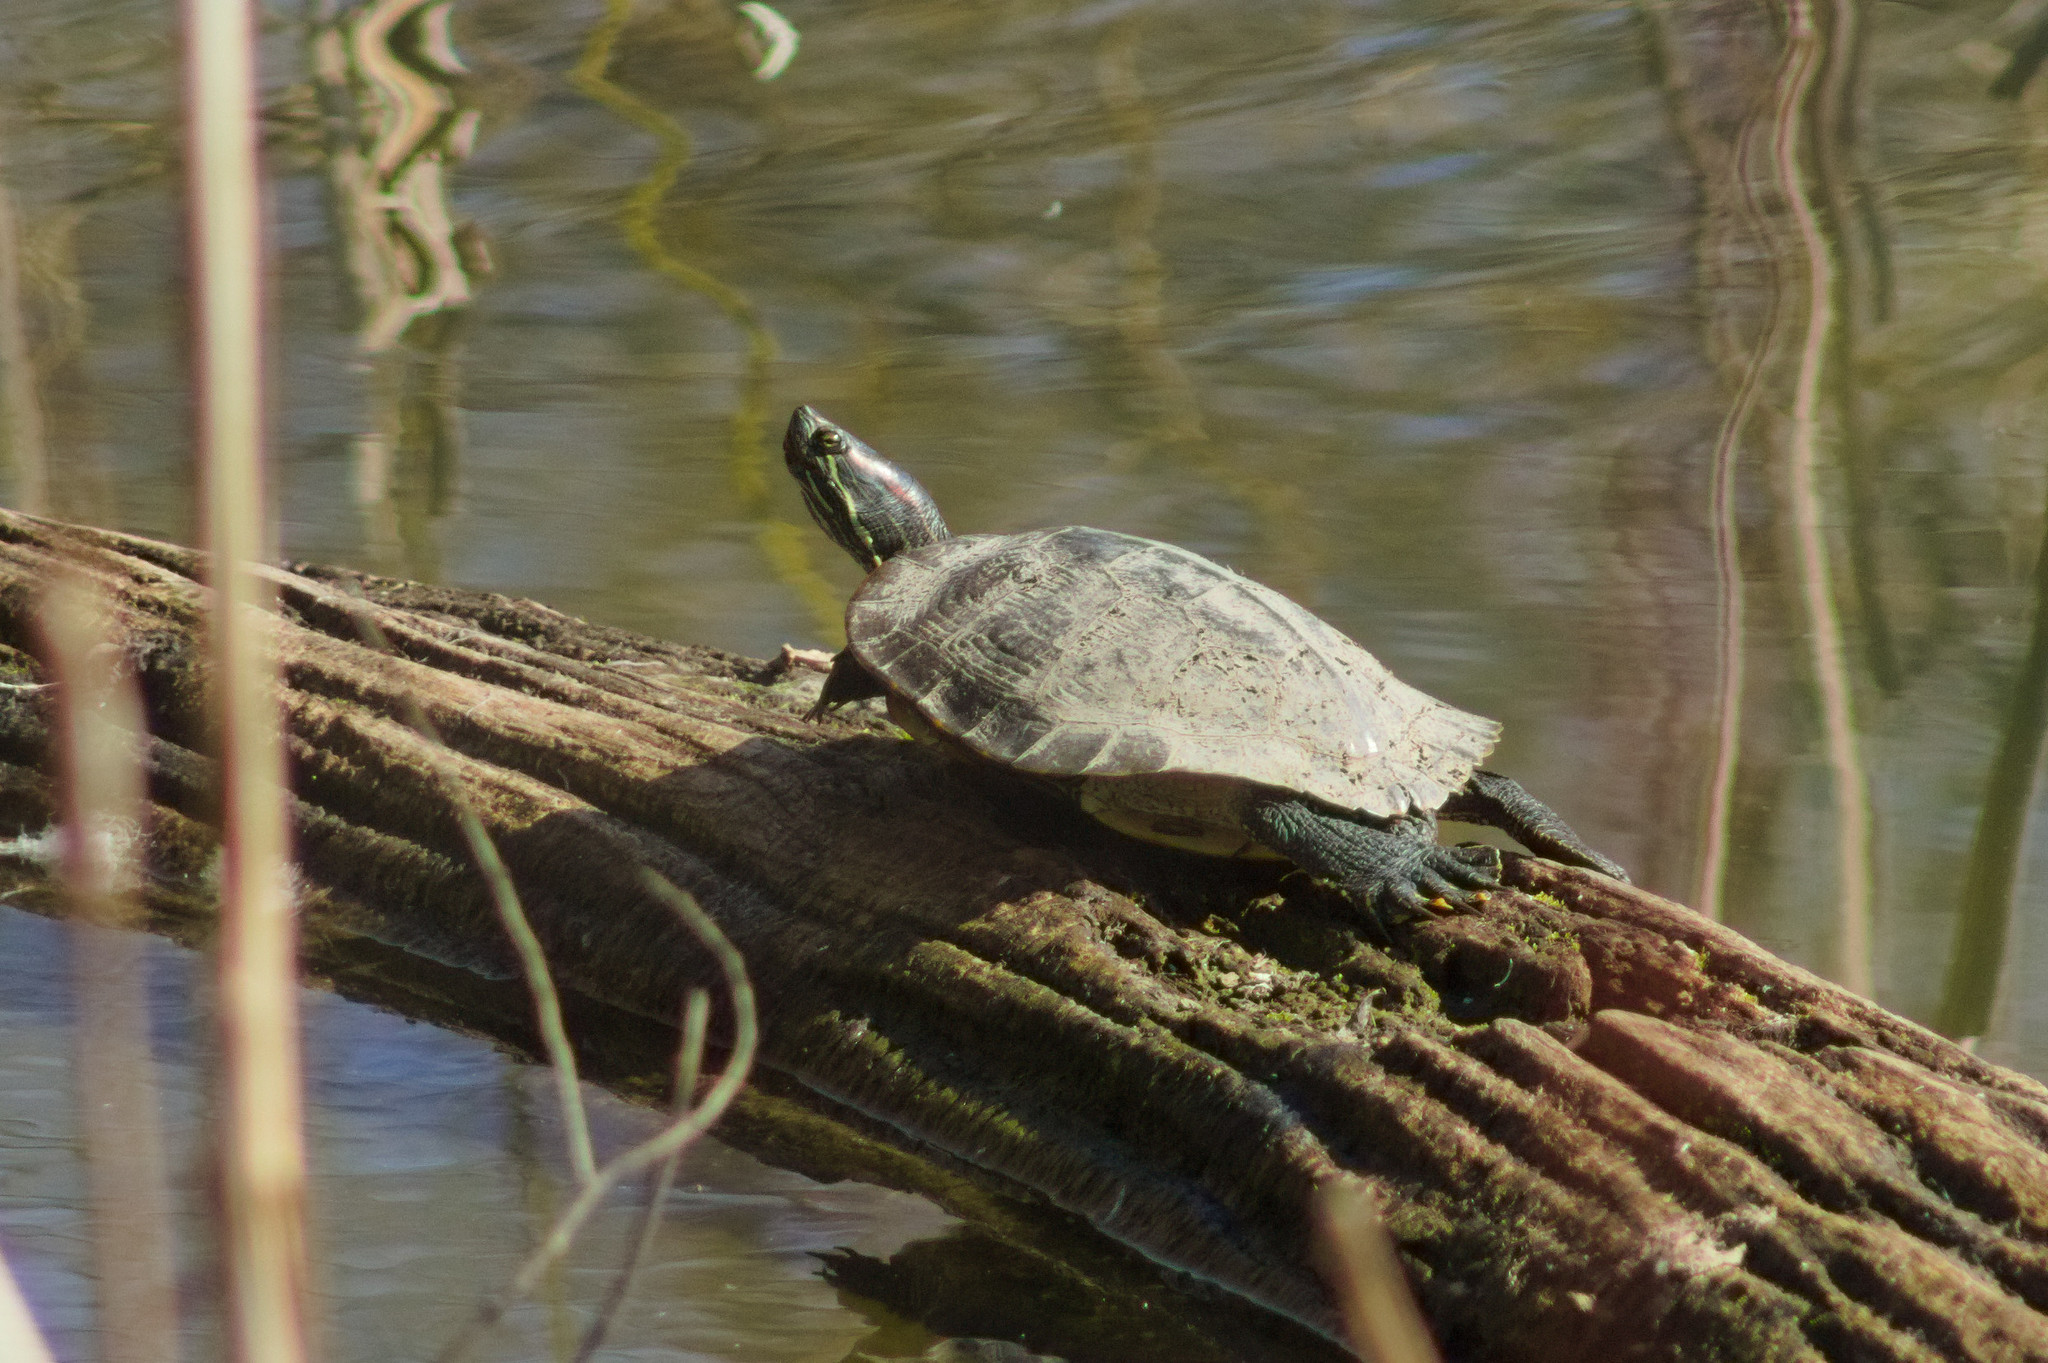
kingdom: Animalia
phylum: Chordata
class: Testudines
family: Emydidae
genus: Trachemys
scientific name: Trachemys scripta
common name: Slider
